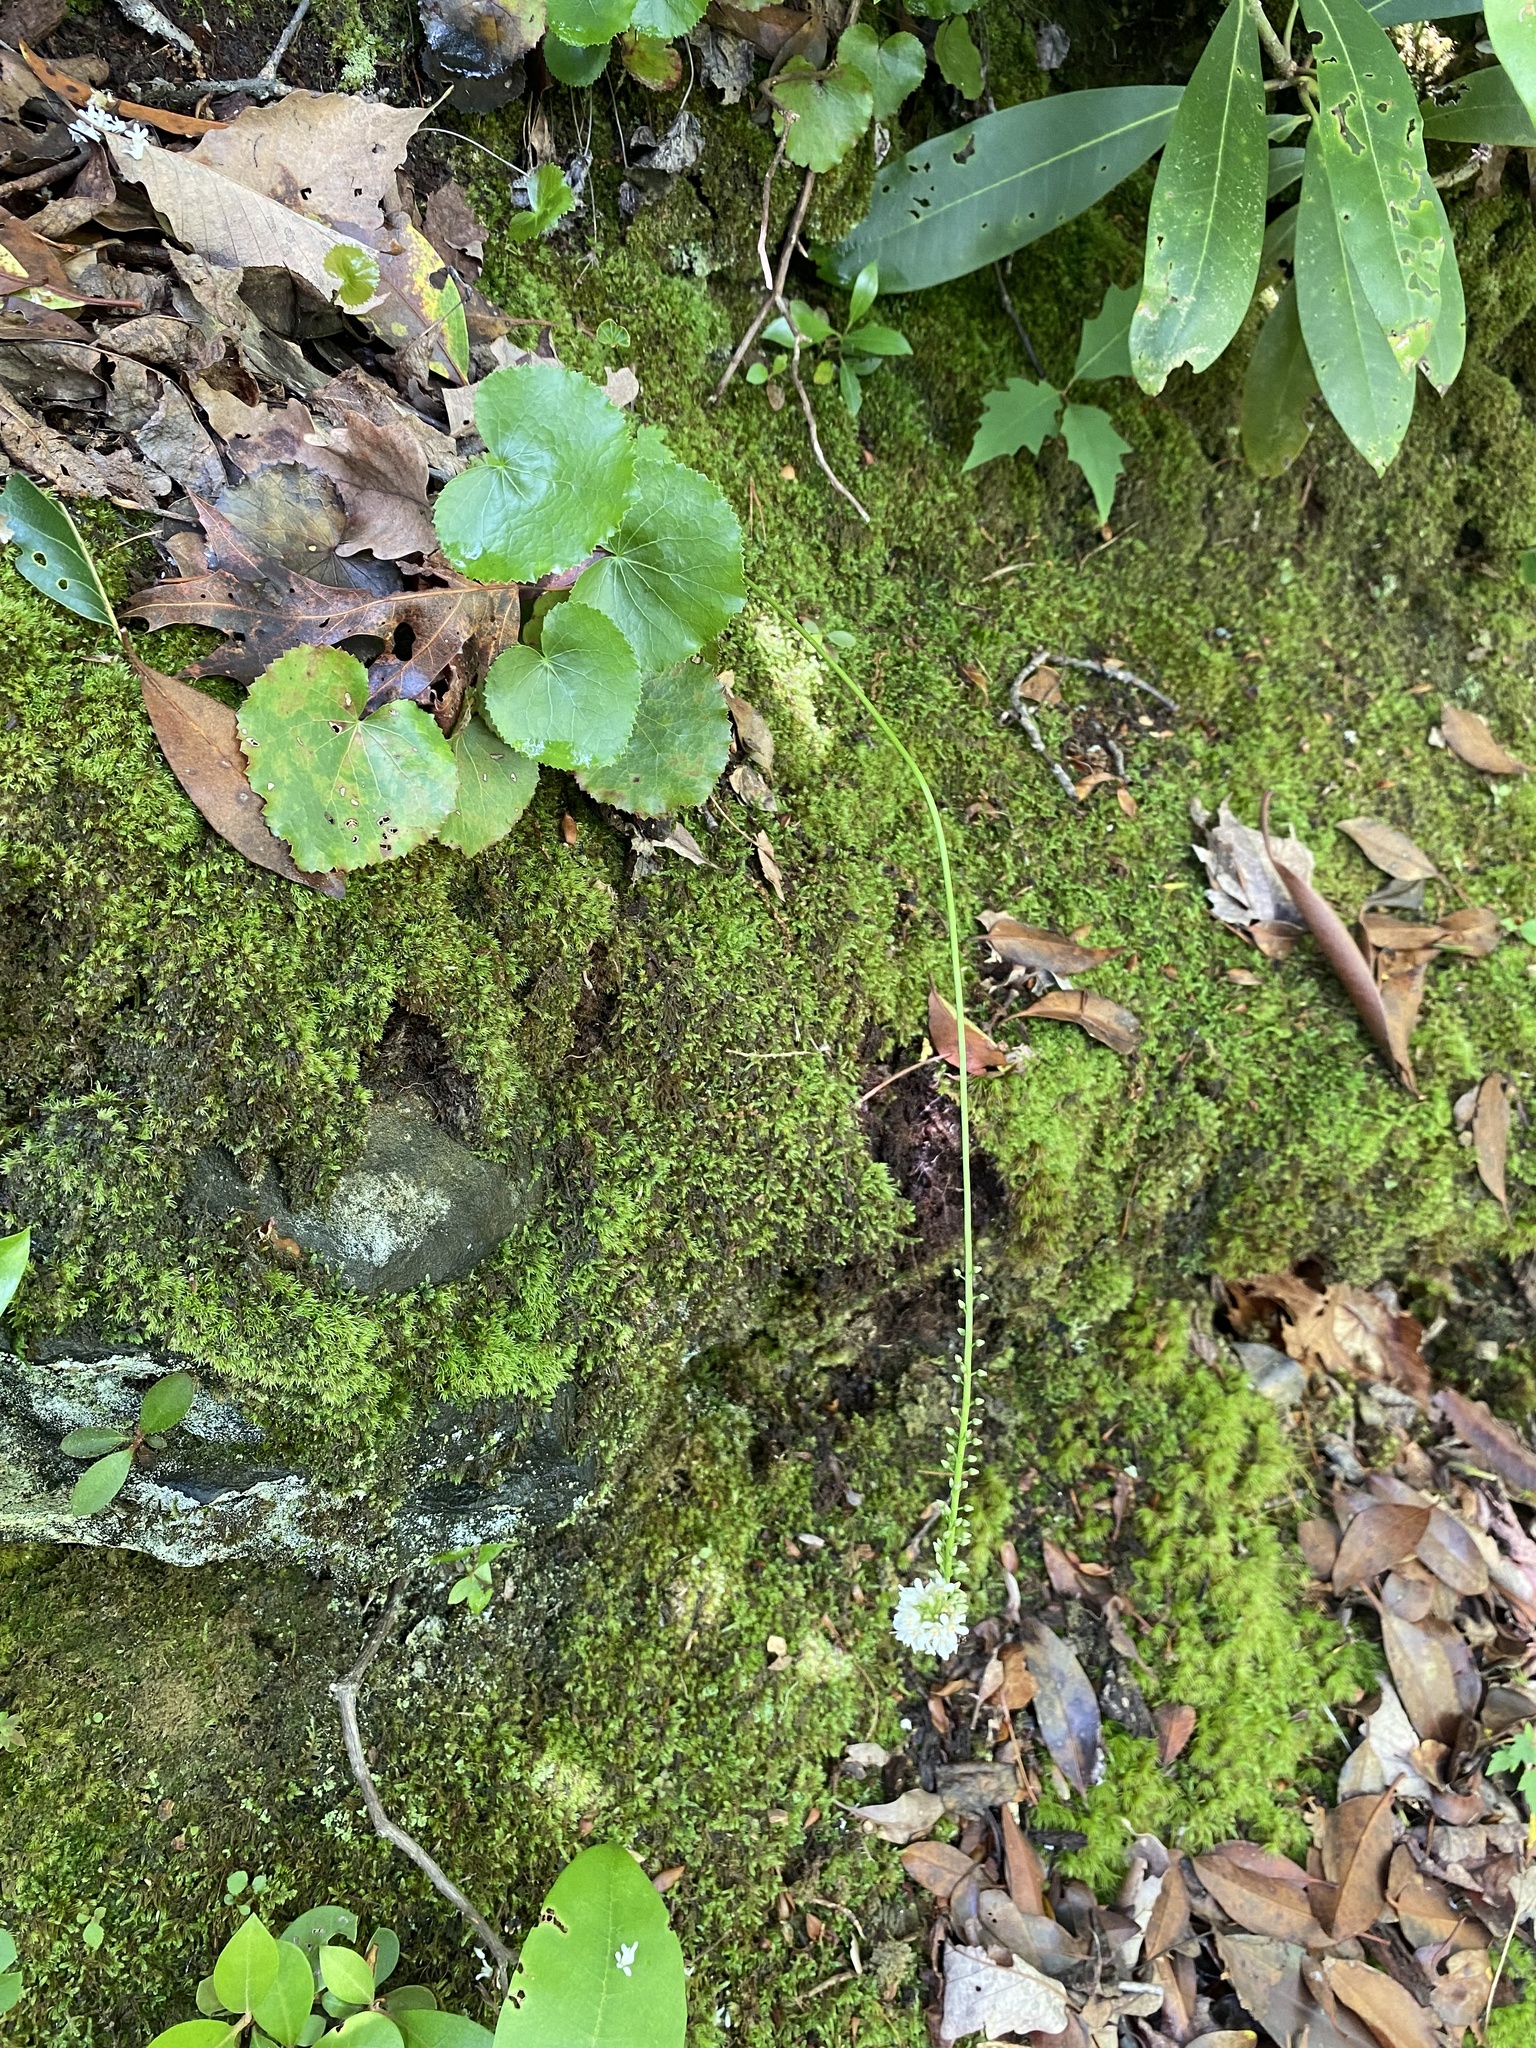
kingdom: Plantae
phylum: Tracheophyta
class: Magnoliopsida
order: Ericales
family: Diapensiaceae
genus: Galax
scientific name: Galax urceolata
